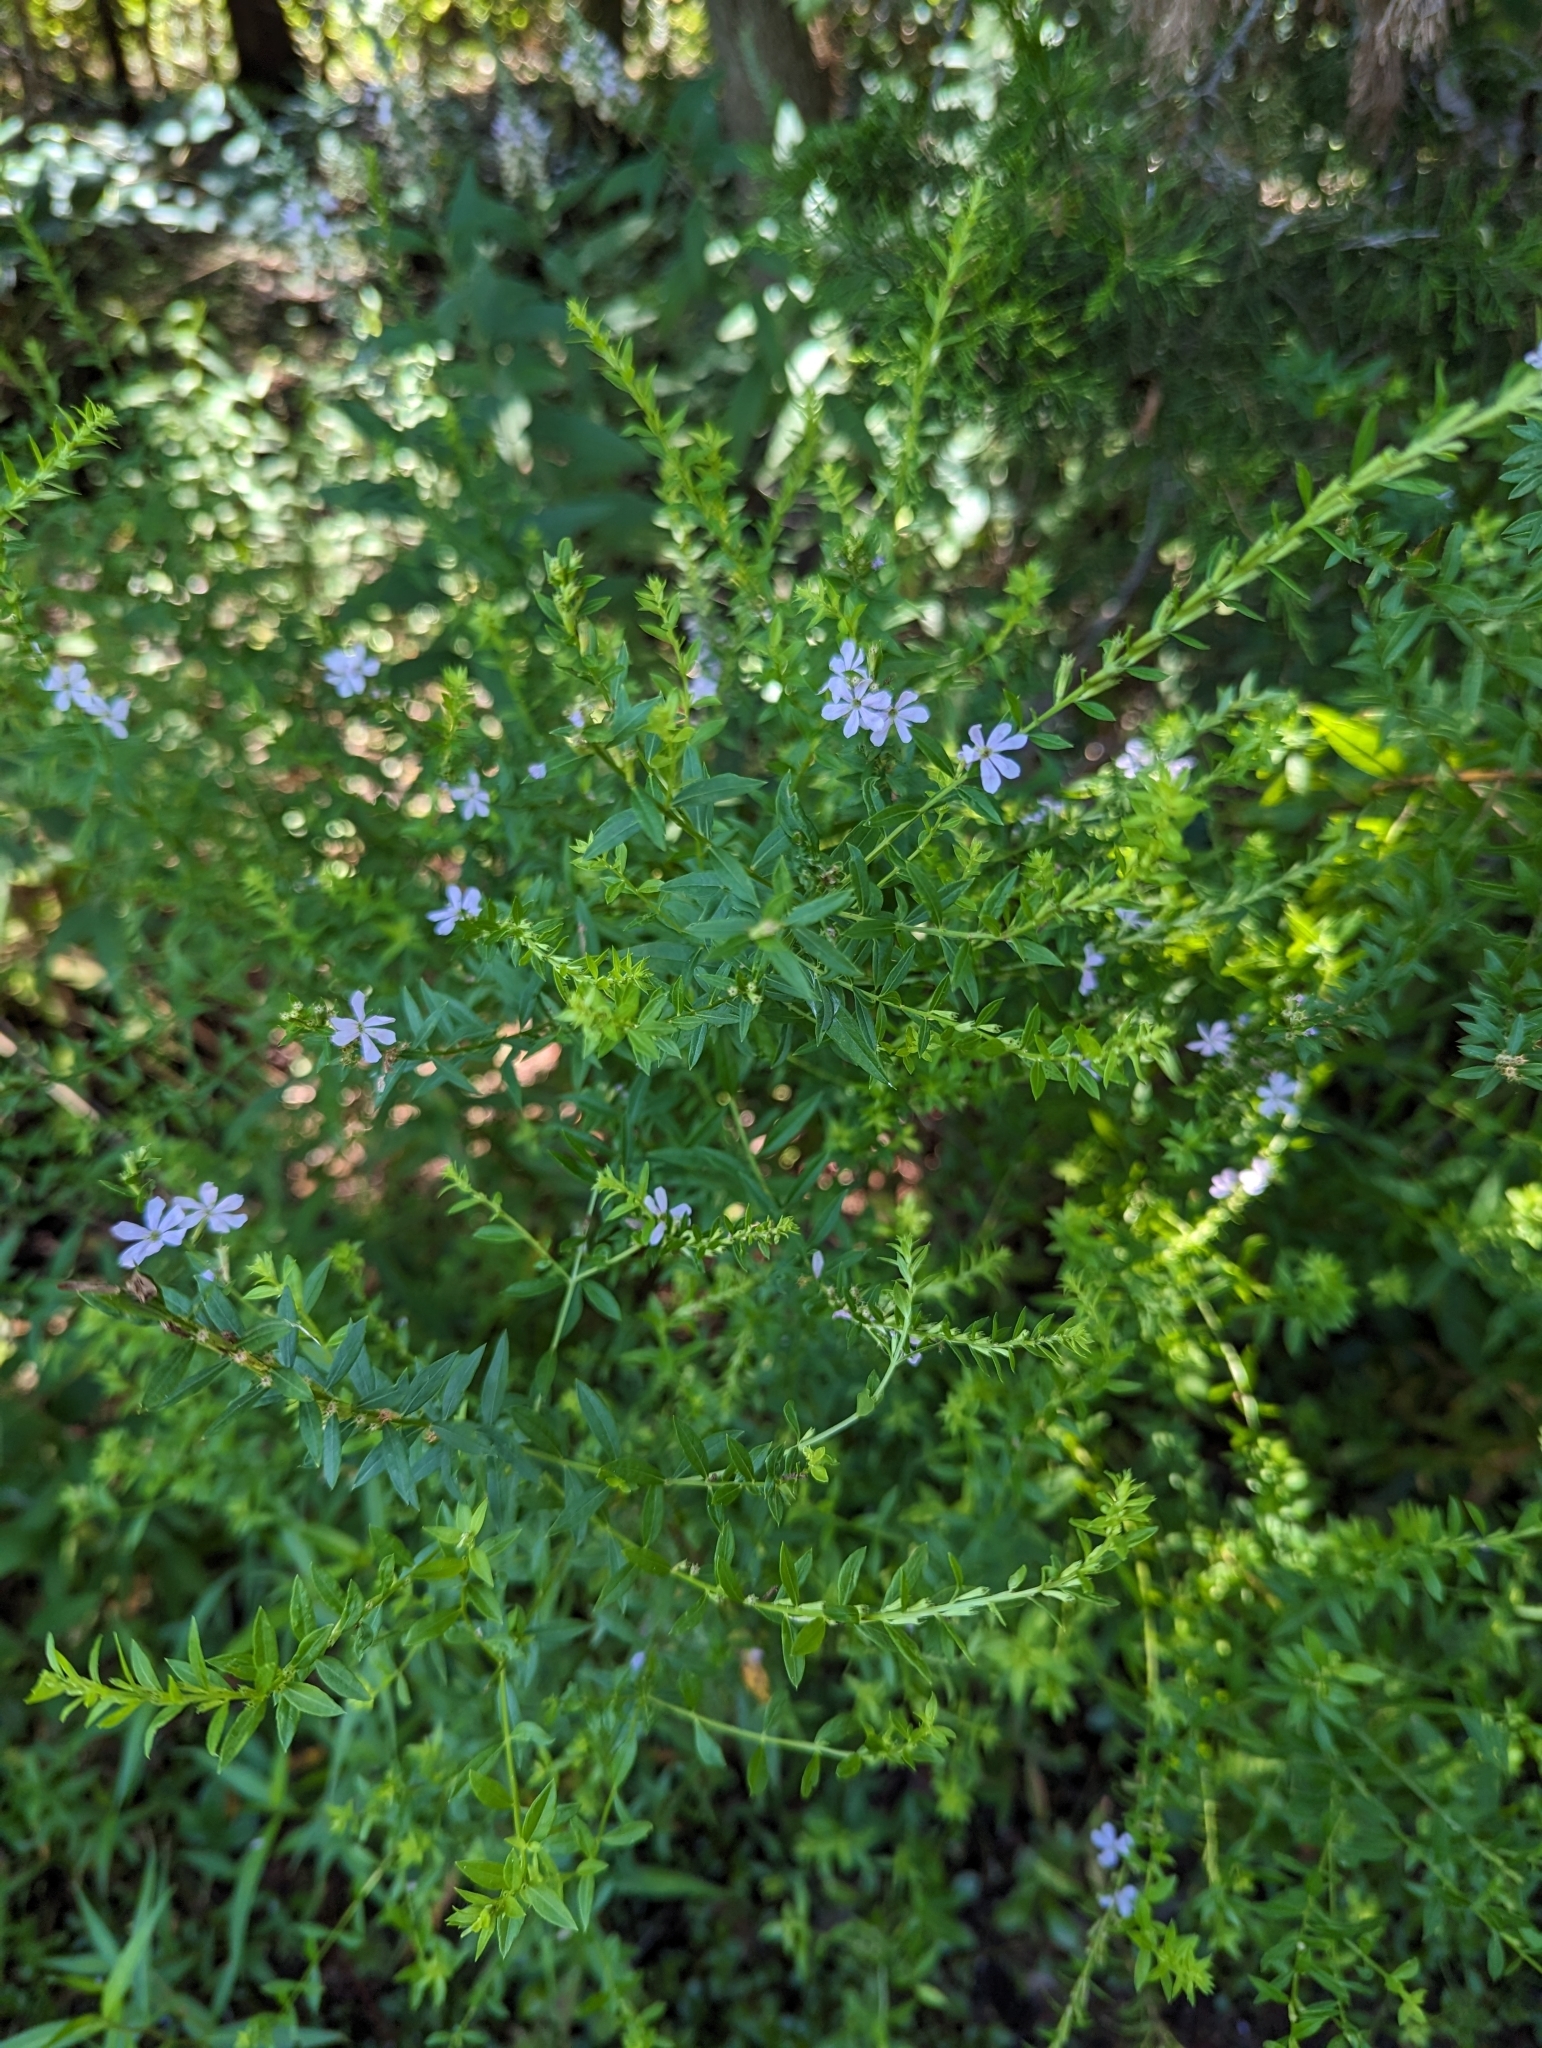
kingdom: Plantae
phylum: Tracheophyta
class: Magnoliopsida
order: Myrtales
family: Lythraceae
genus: Lythrum
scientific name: Lythrum alatum
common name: Winged loosestrife
